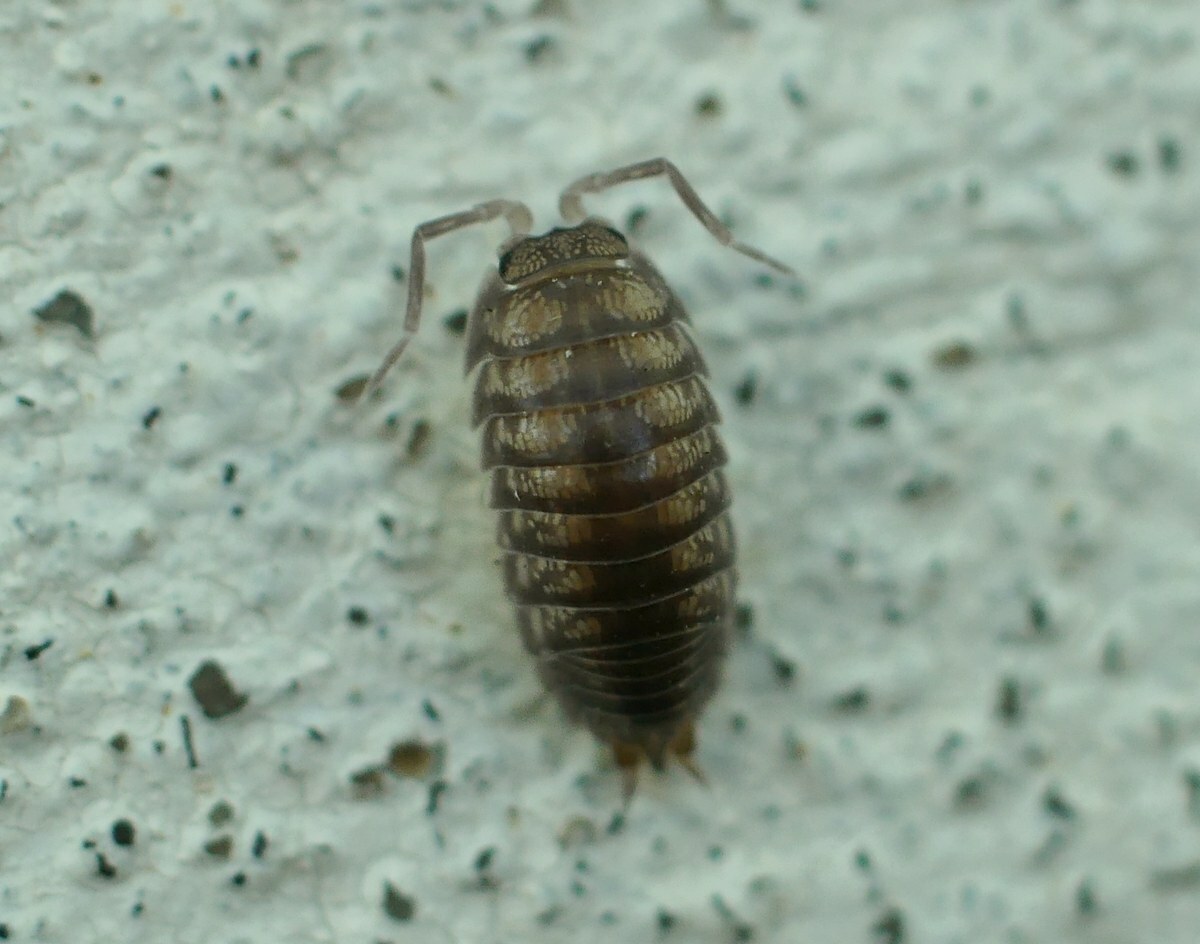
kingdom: Animalia
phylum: Arthropoda
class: Malacostraca
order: Isopoda
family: Cylisticidae
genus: Cylisticus
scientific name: Cylisticus convexus
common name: Curly woodlouse
